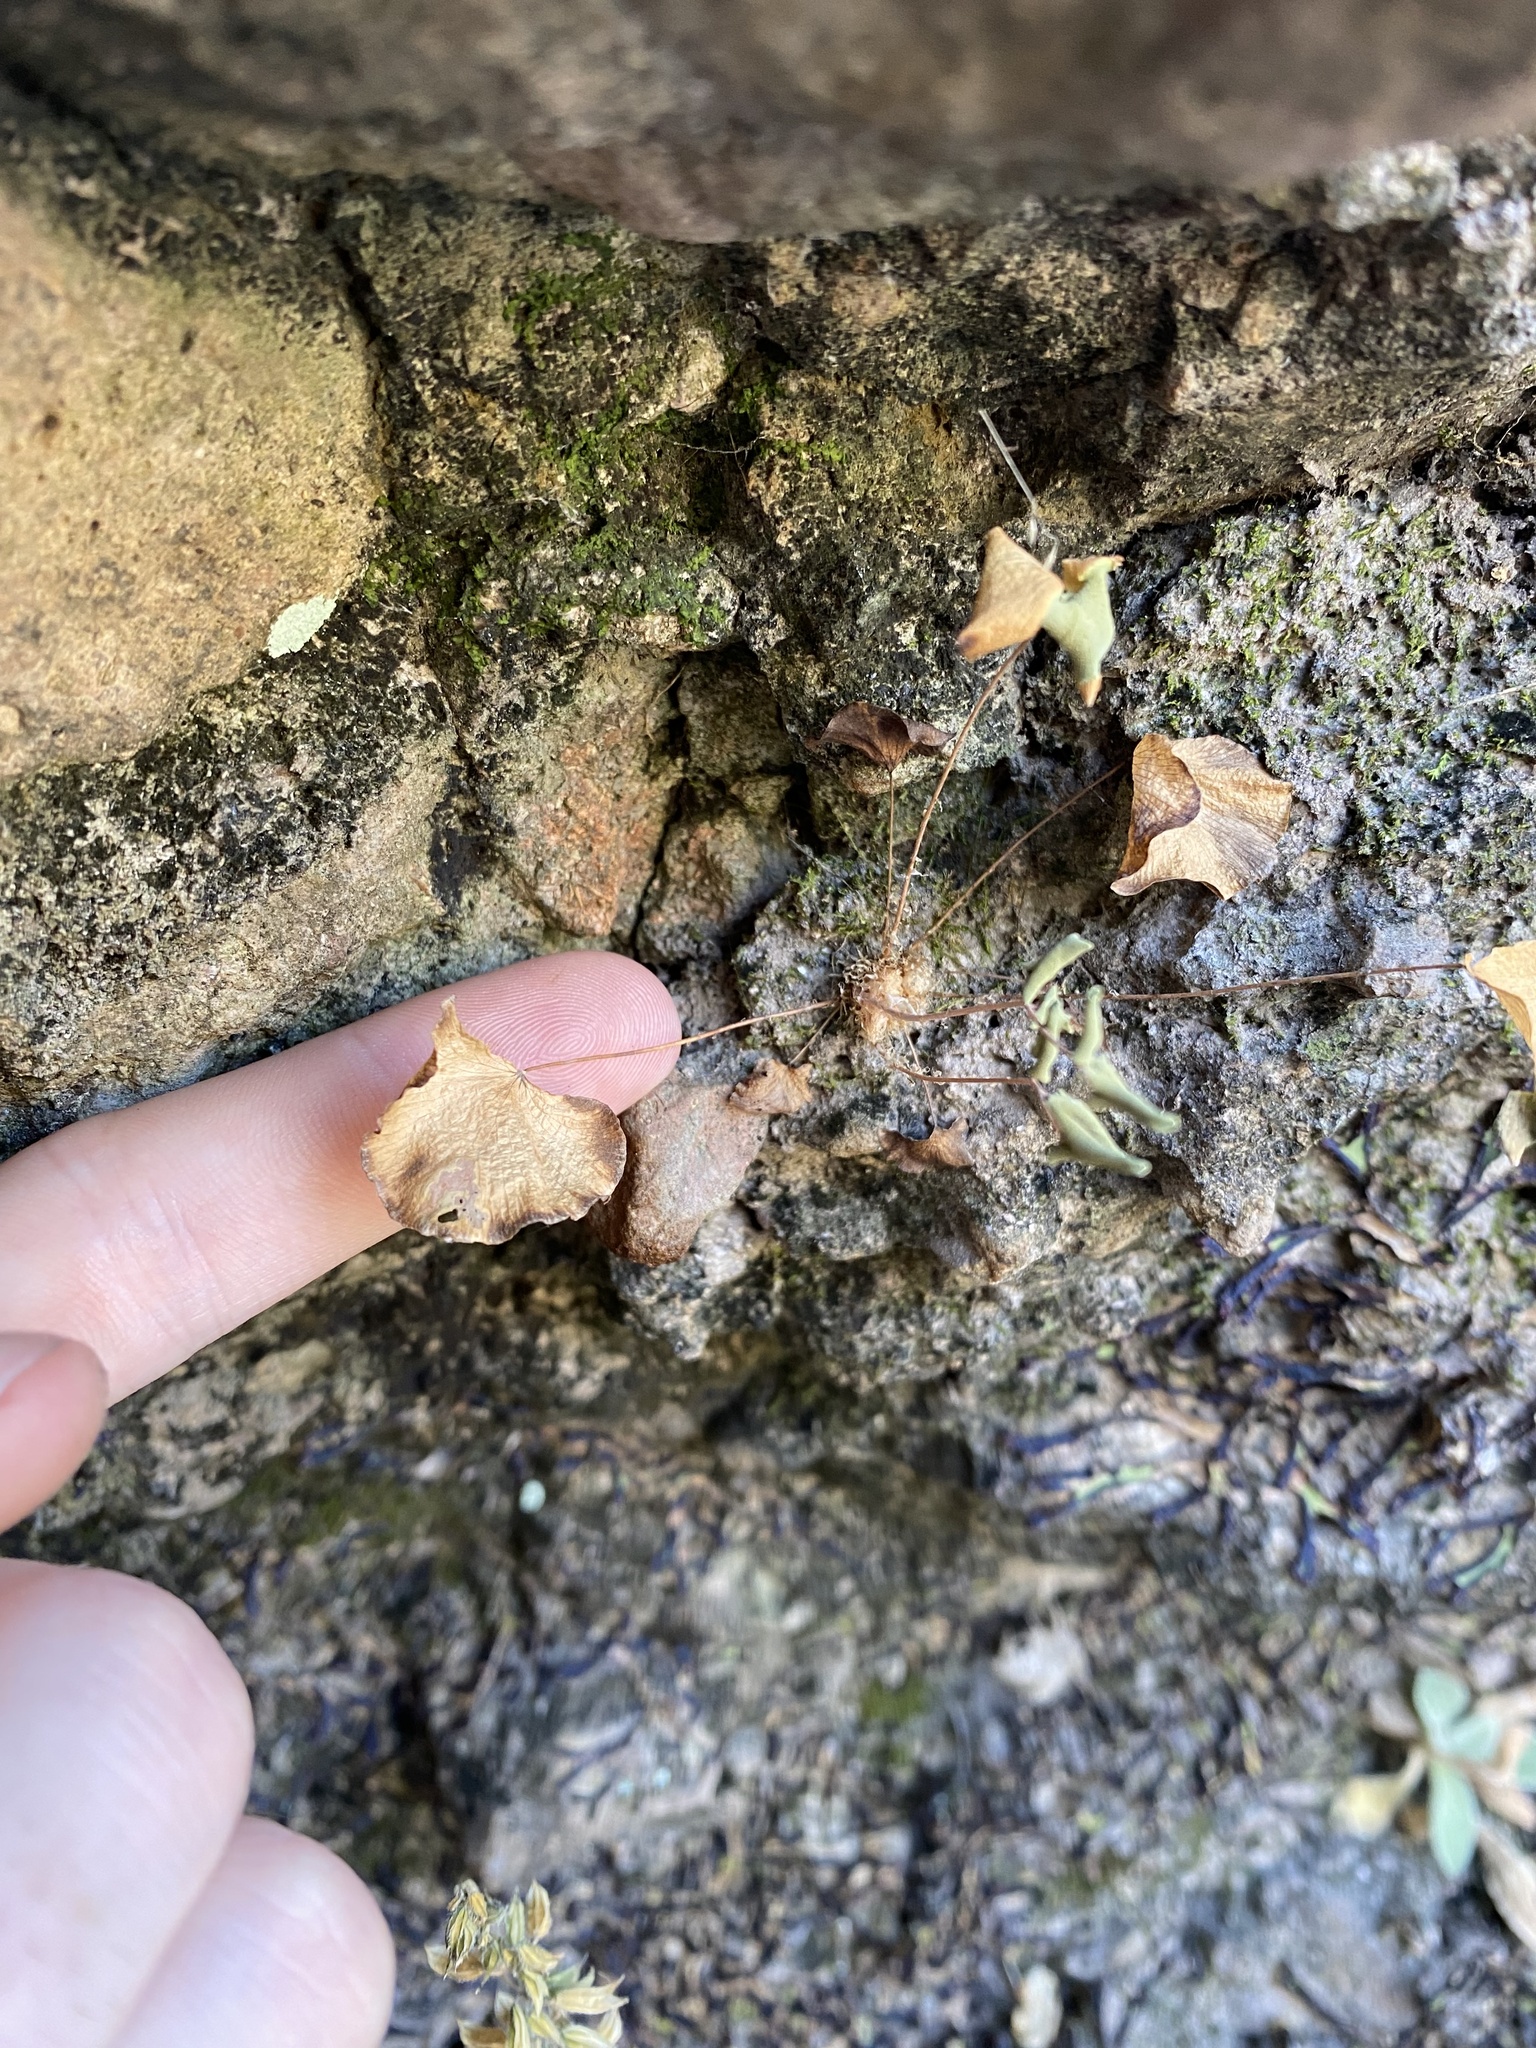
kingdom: Plantae
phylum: Tracheophyta
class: Polypodiopsida
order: Polypodiales
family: Pteridaceae
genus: Pellaea
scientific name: Pellaea cordifolia
